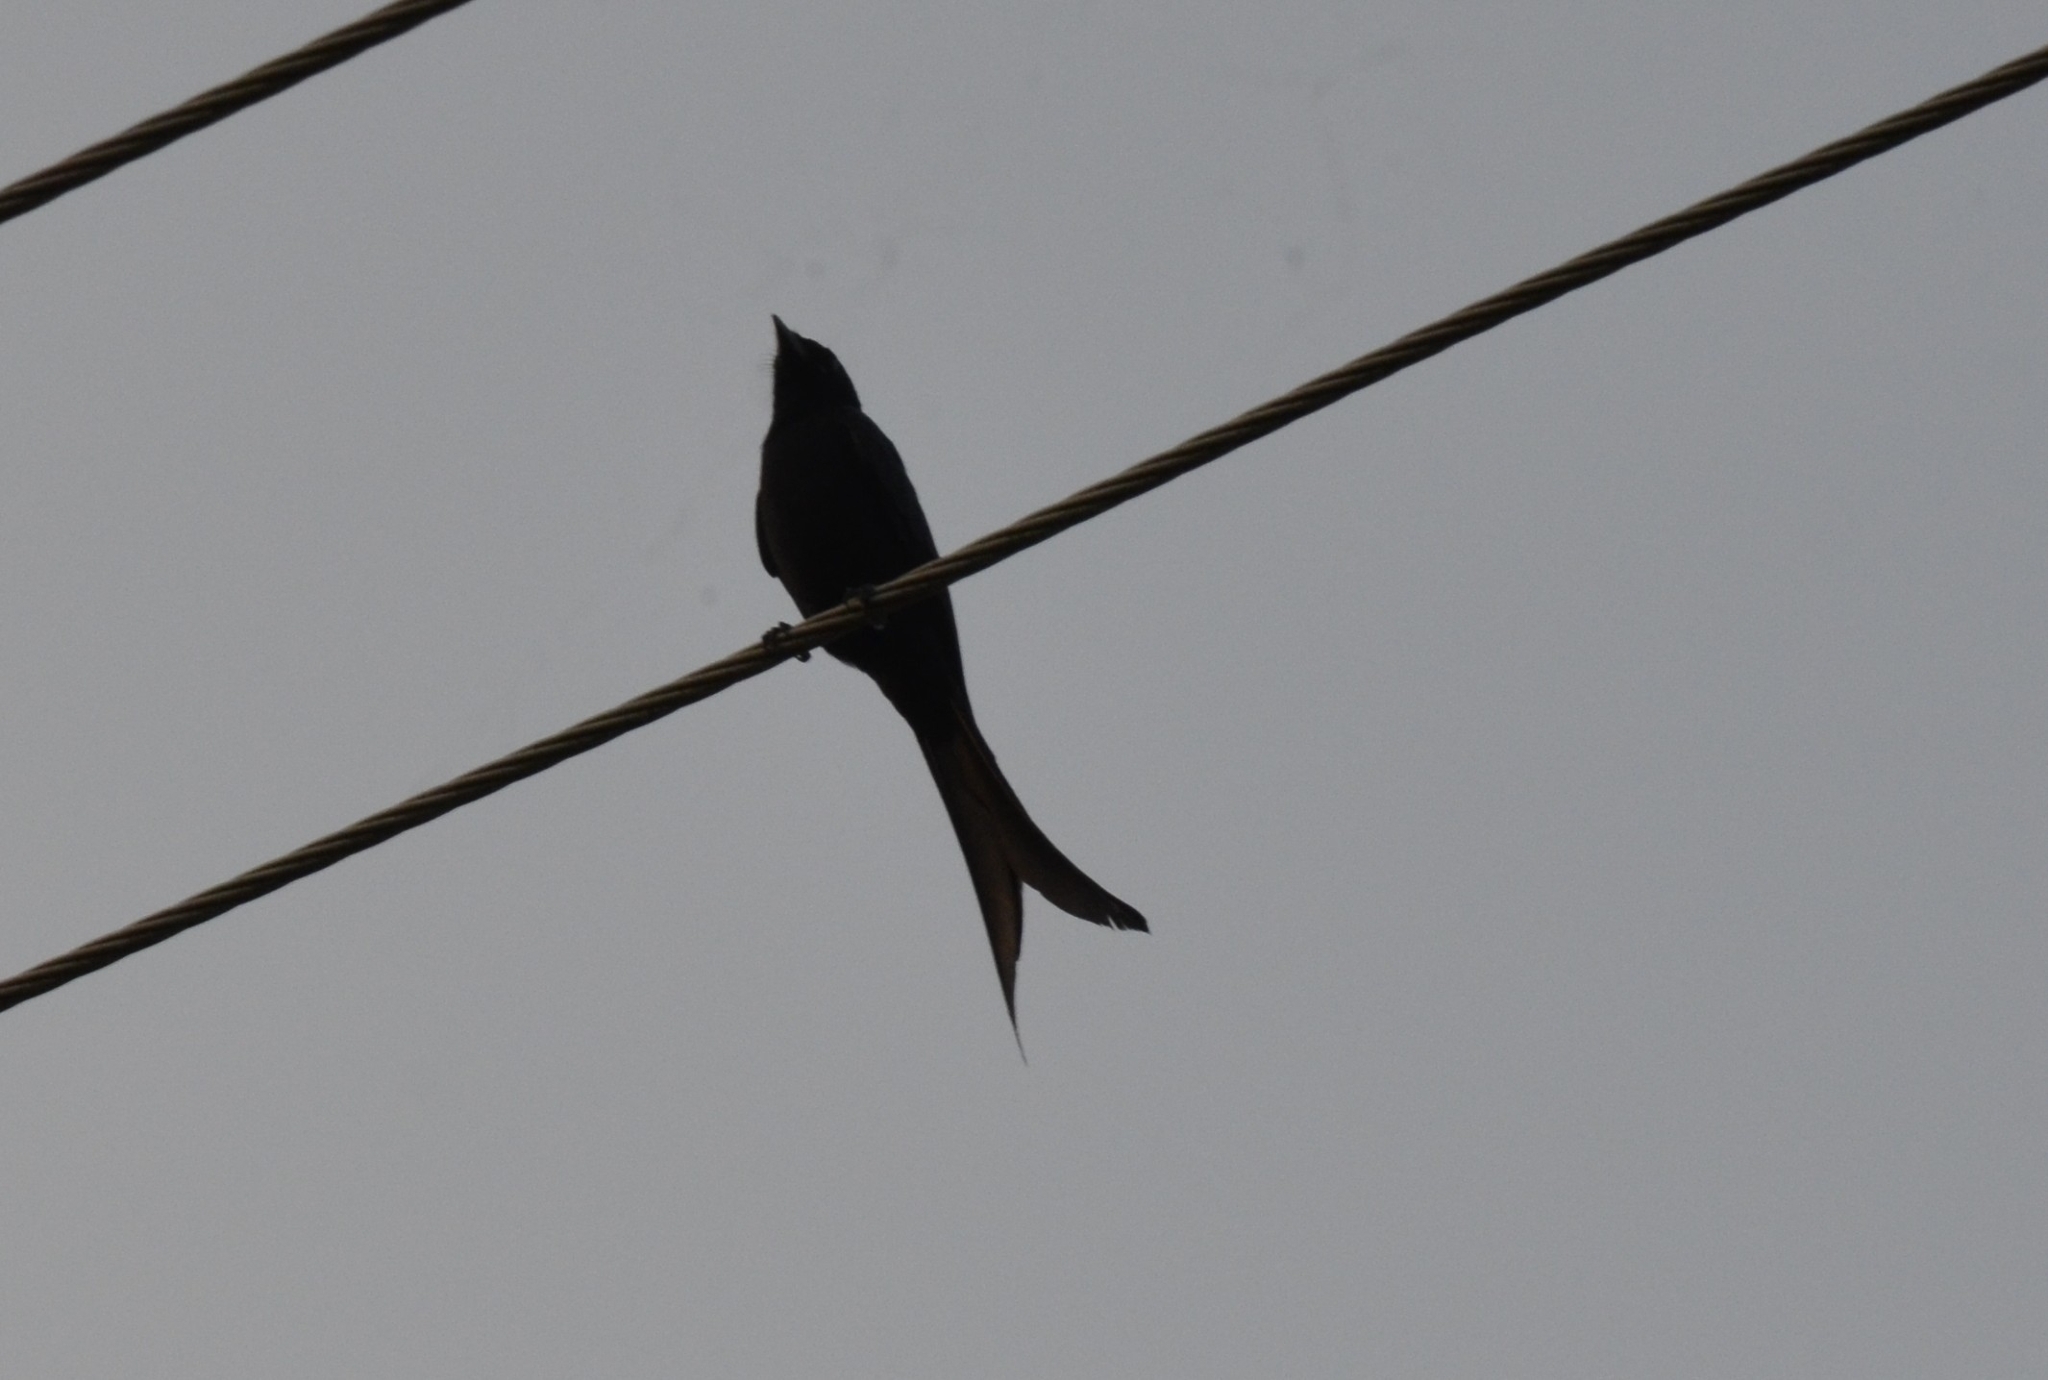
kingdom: Animalia
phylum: Chordata
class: Aves
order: Passeriformes
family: Dicruridae
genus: Dicrurus
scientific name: Dicrurus macrocercus
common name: Black drongo
